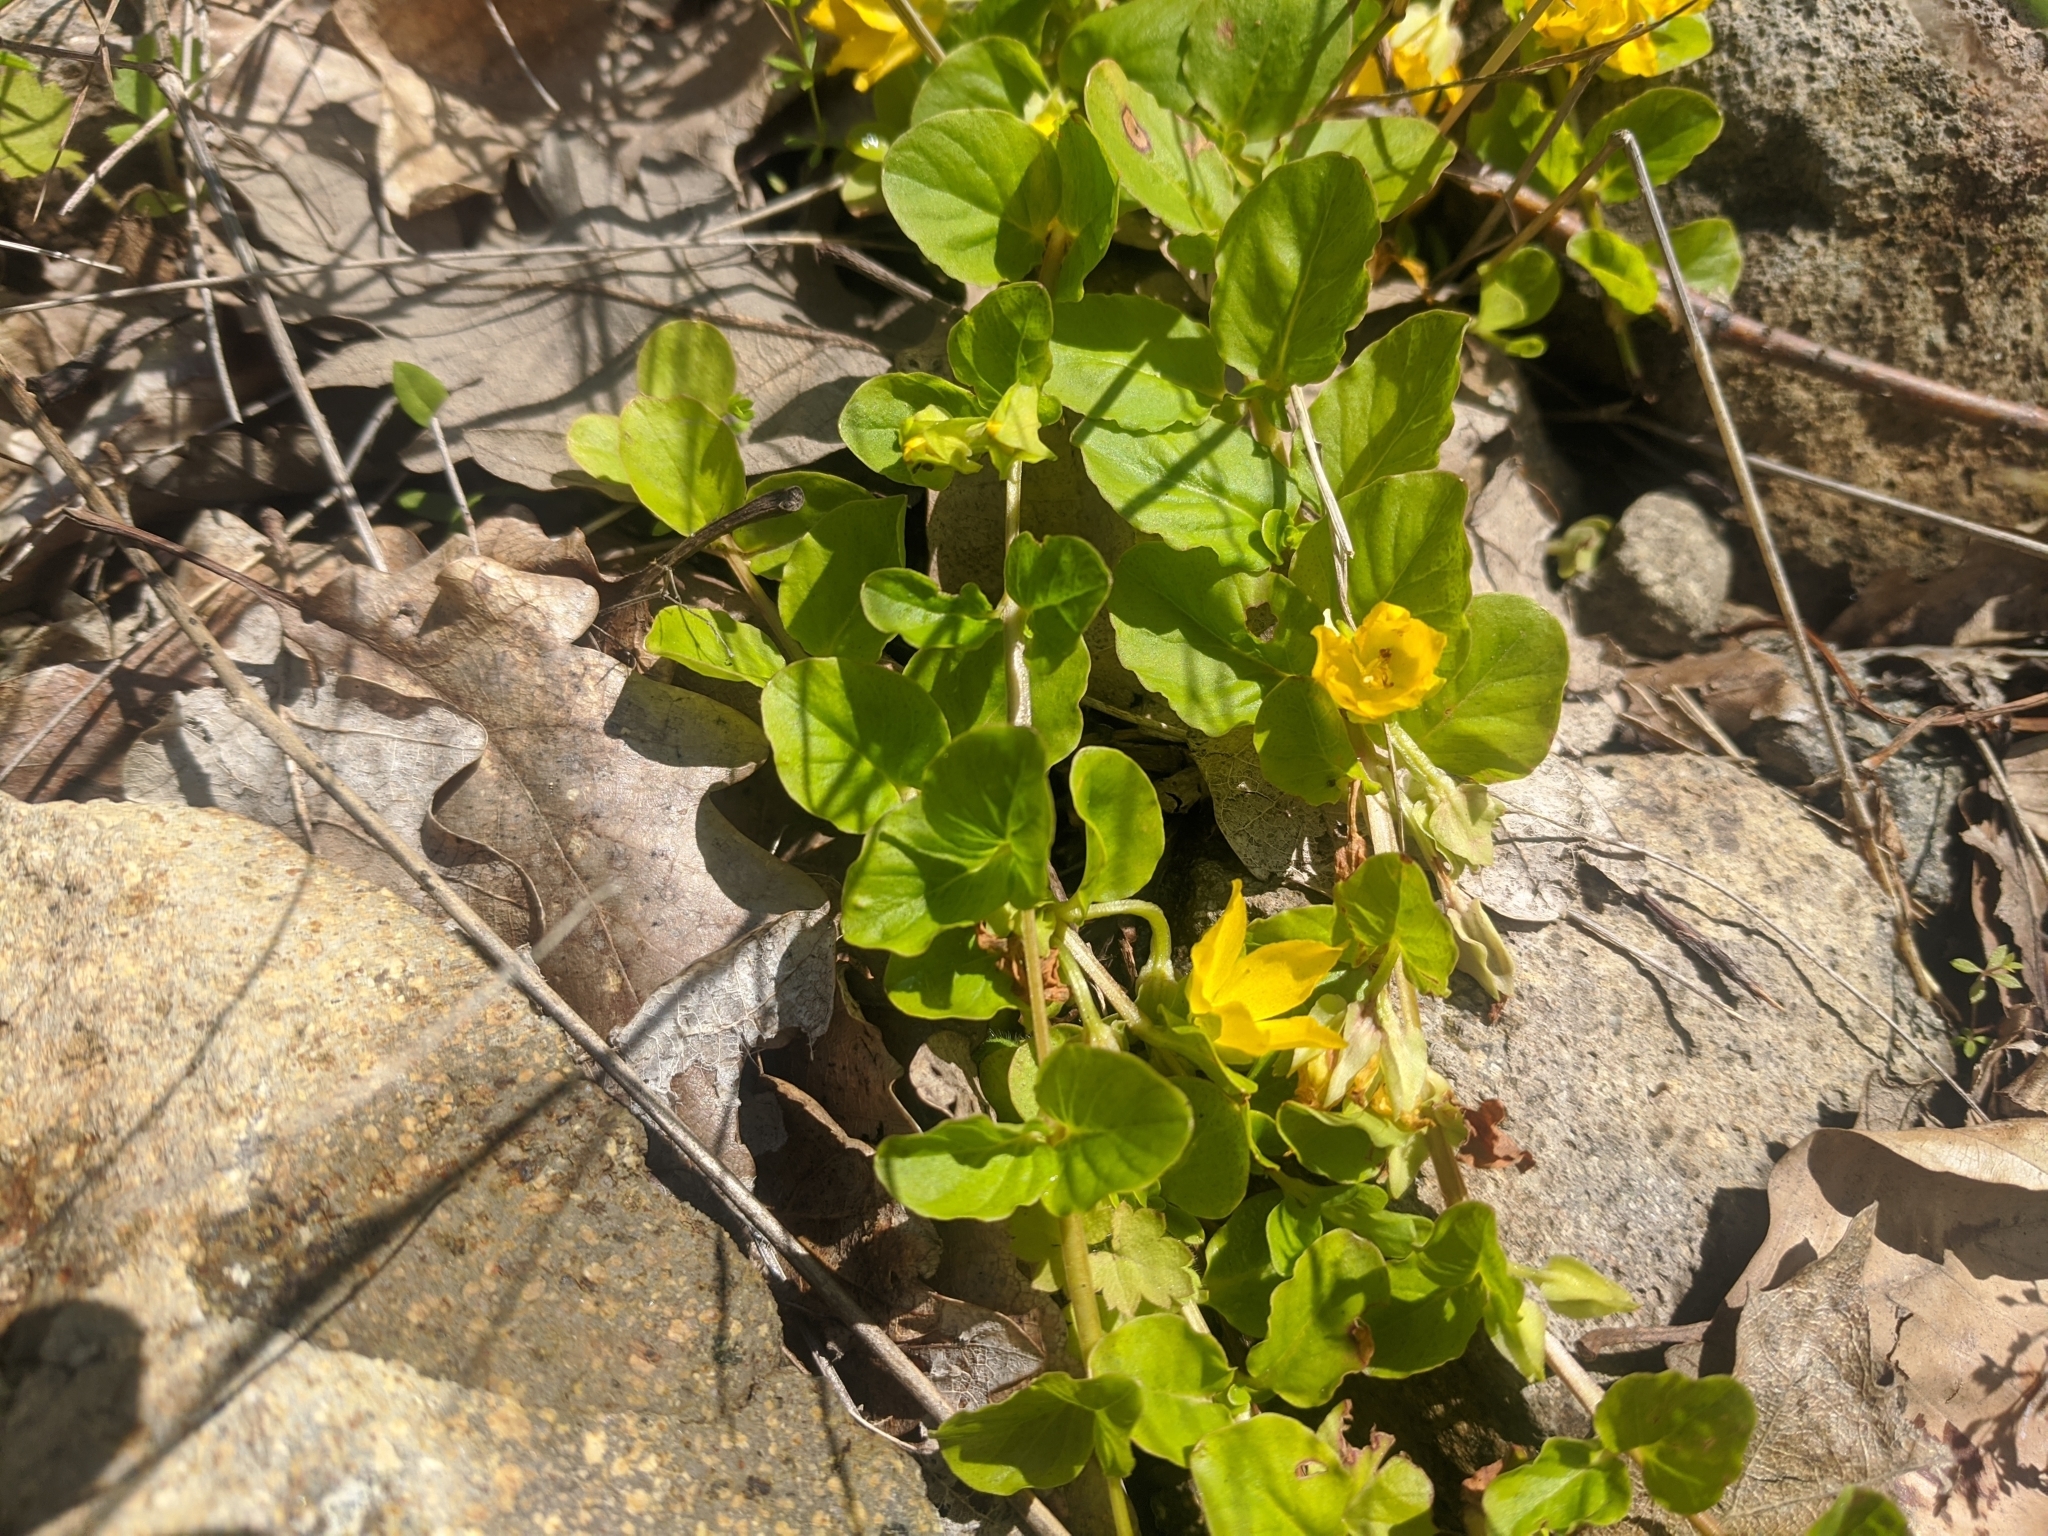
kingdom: Plantae
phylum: Tracheophyta
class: Magnoliopsida
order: Ericales
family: Primulaceae
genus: Lysimachia
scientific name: Lysimachia nummularia
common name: Moneywort
